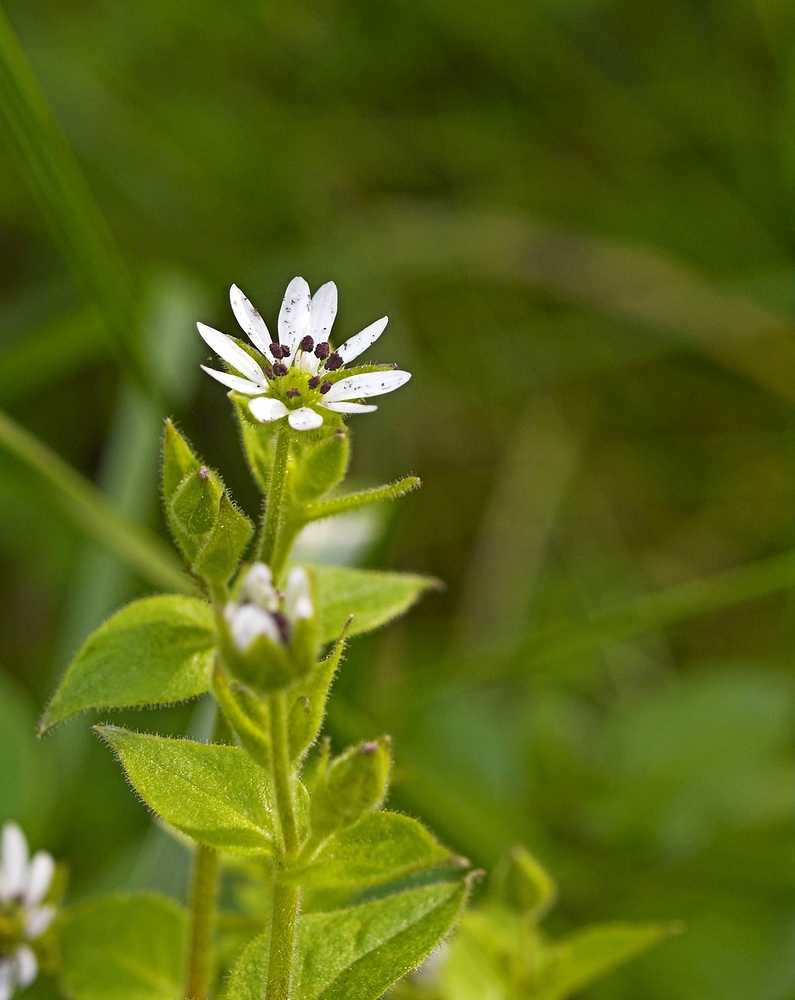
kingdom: Plantae
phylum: Tracheophyta
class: Magnoliopsida
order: Caryophyllales
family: Caryophyllaceae
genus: Stellaria
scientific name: Stellaria aquatica
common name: Water chickweed
